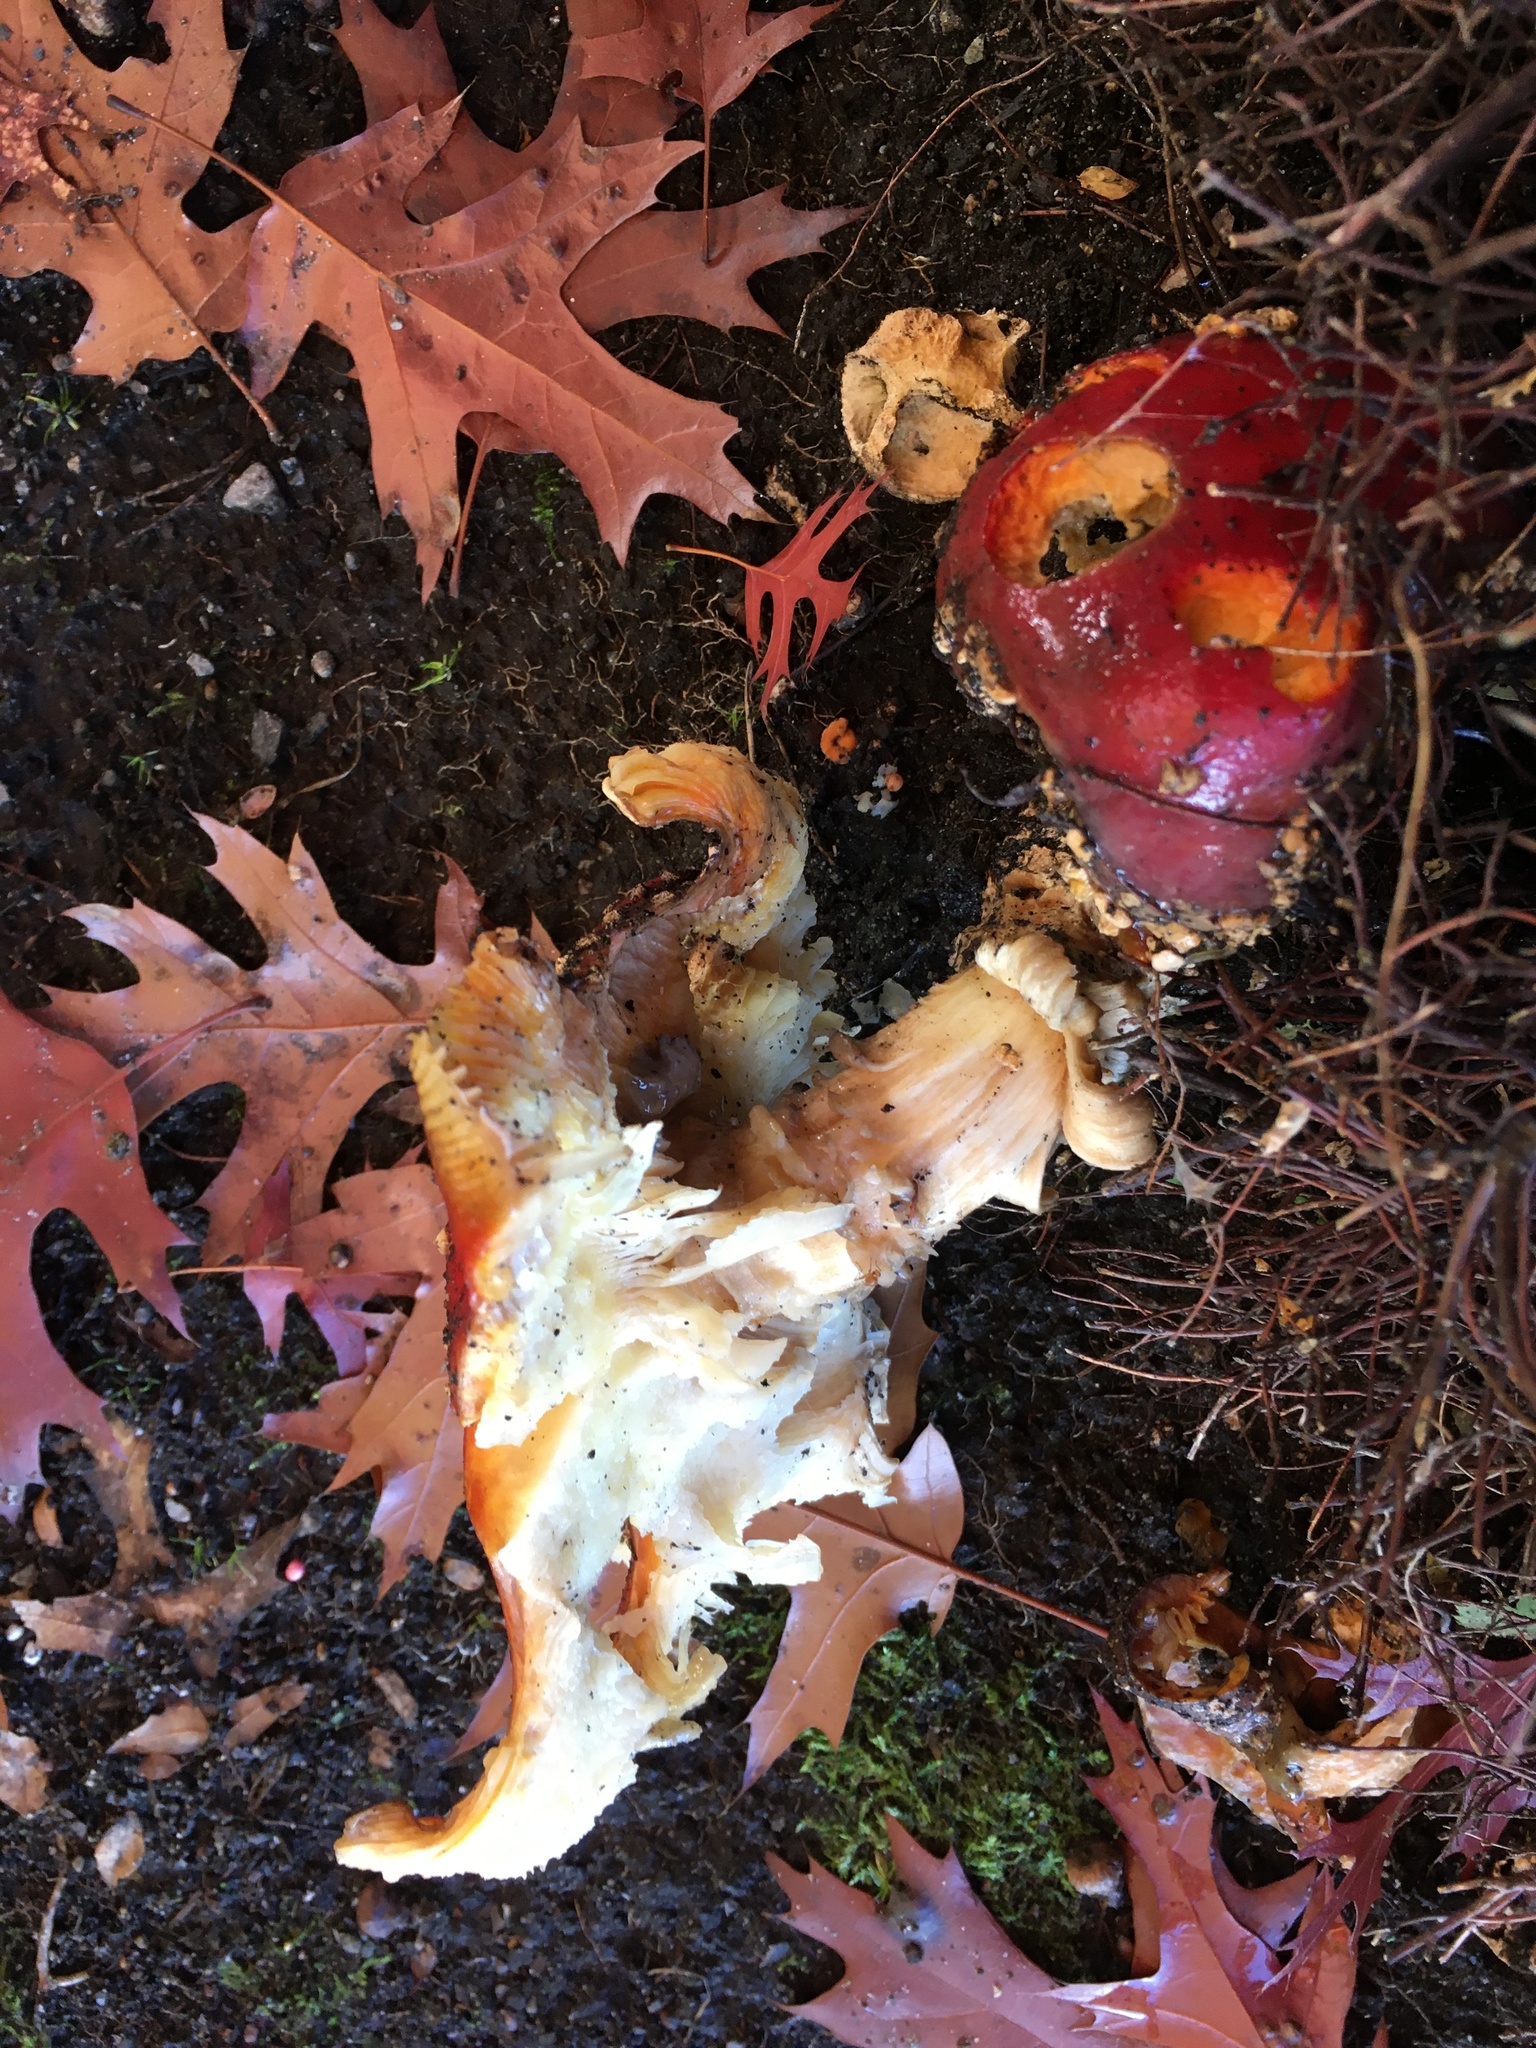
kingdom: Fungi
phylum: Basidiomycota
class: Agaricomycetes
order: Agaricales
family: Amanitaceae
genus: Amanita
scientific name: Amanita muscaria
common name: Fly agaric
